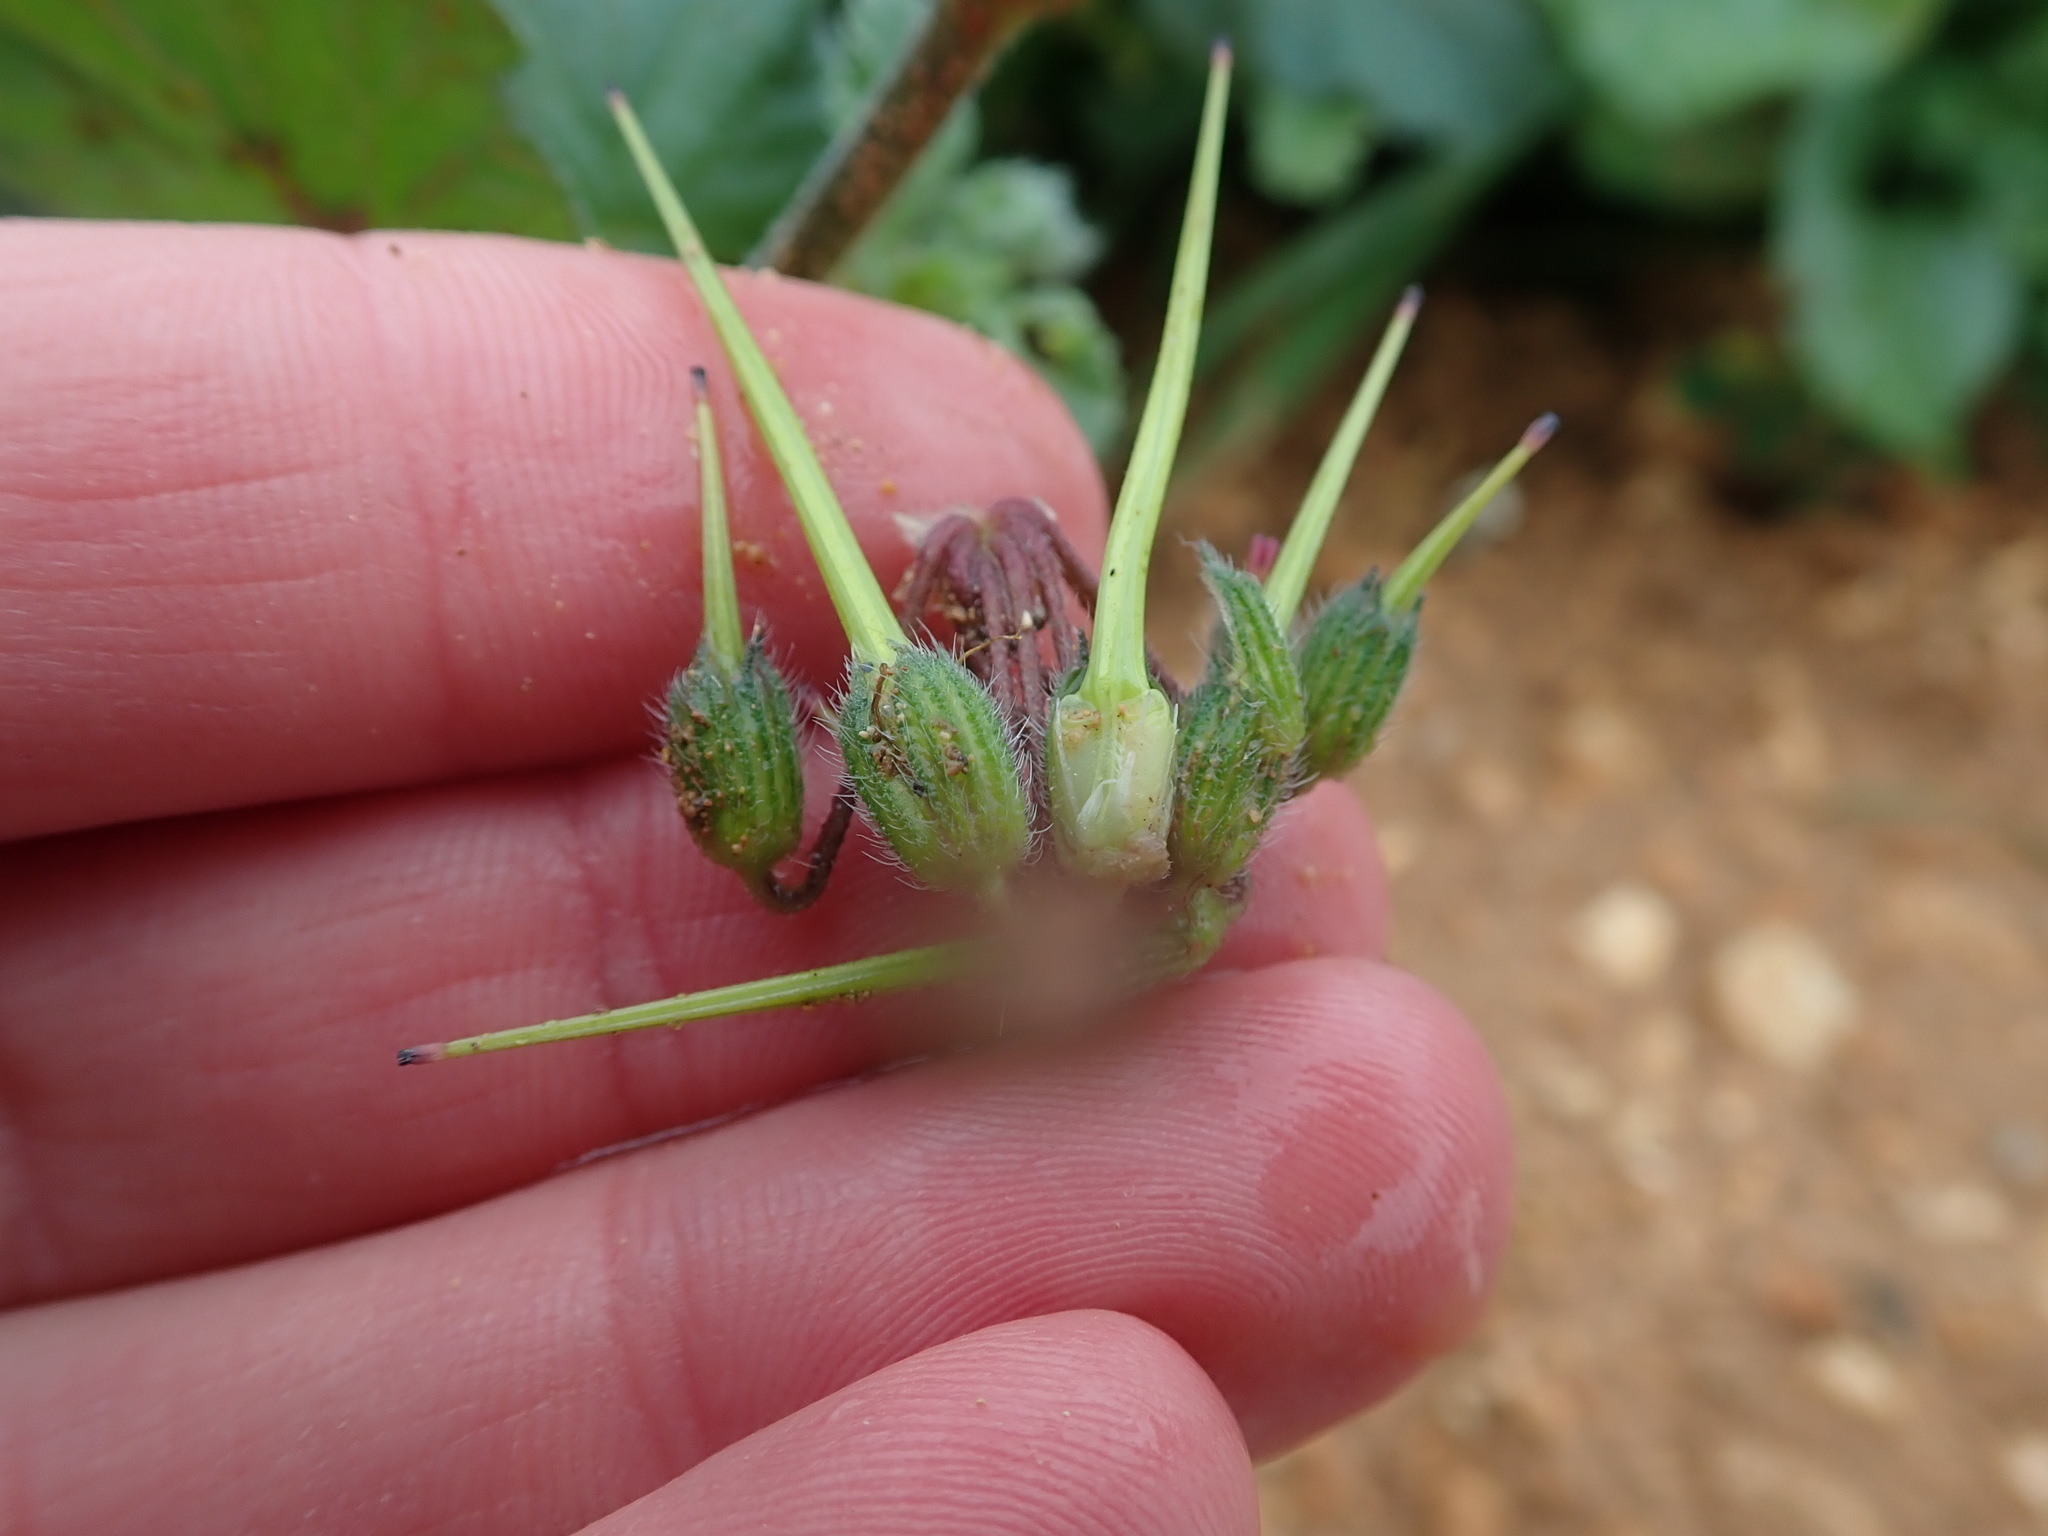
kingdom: Plantae
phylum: Tracheophyta
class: Magnoliopsida
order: Geraniales
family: Geraniaceae
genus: Erodium
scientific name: Erodium malacoides
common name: Soft stork's-bill
